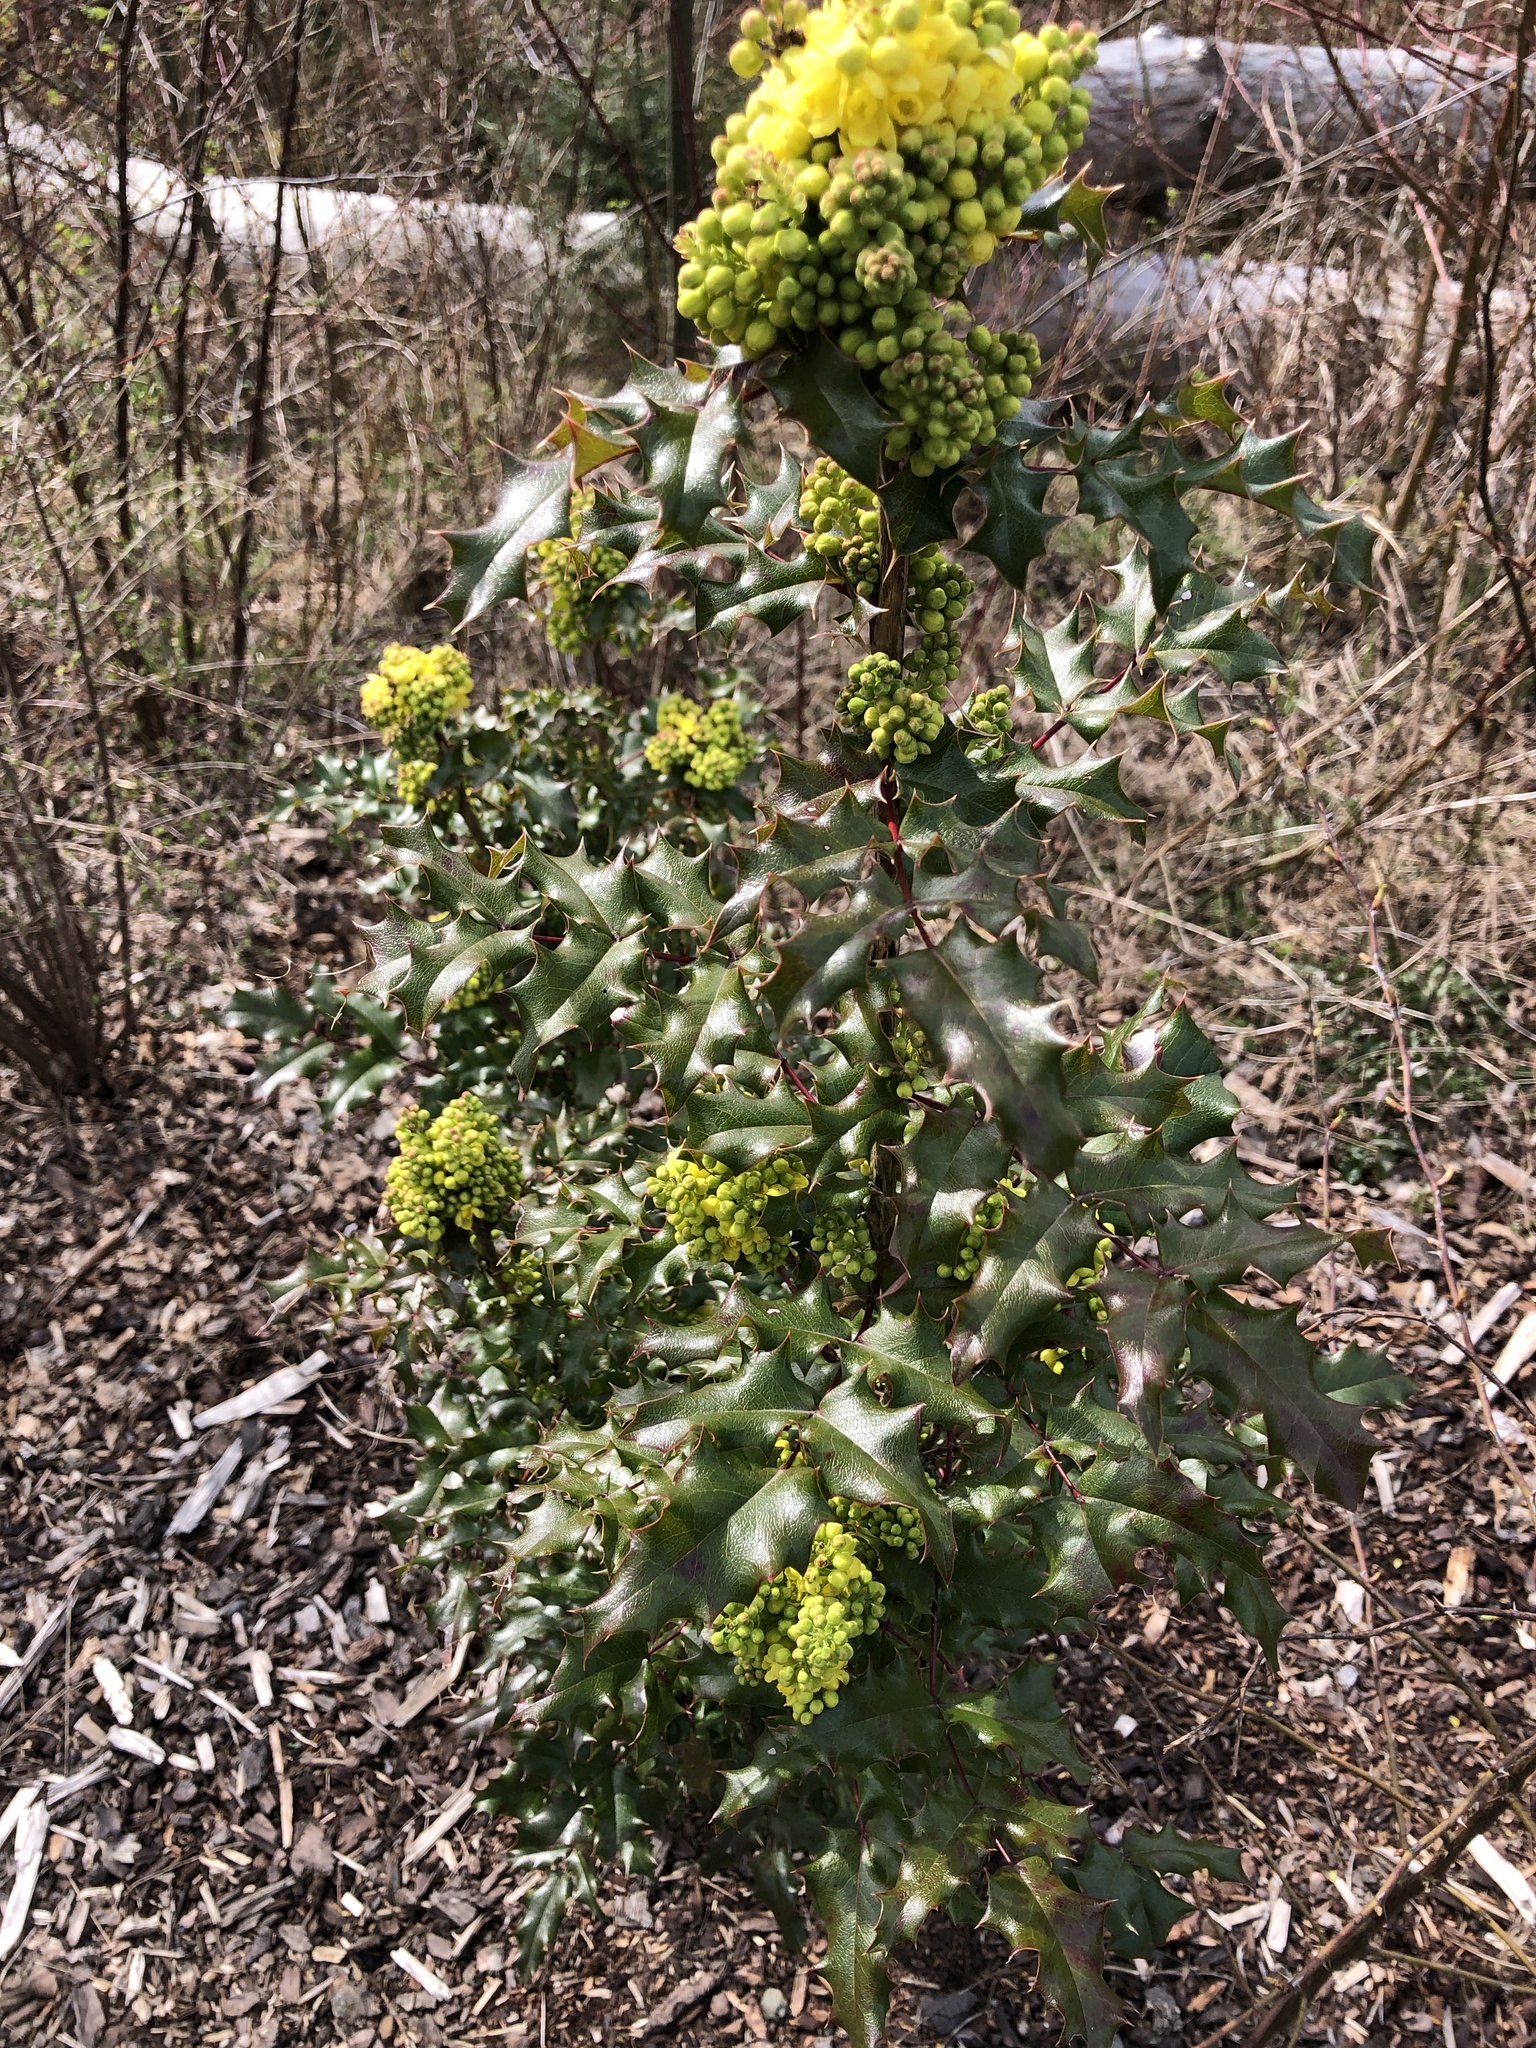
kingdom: Plantae
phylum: Tracheophyta
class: Magnoliopsida
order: Ranunculales
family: Berberidaceae
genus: Mahonia
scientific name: Mahonia aquifolium
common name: Oregon-grape
